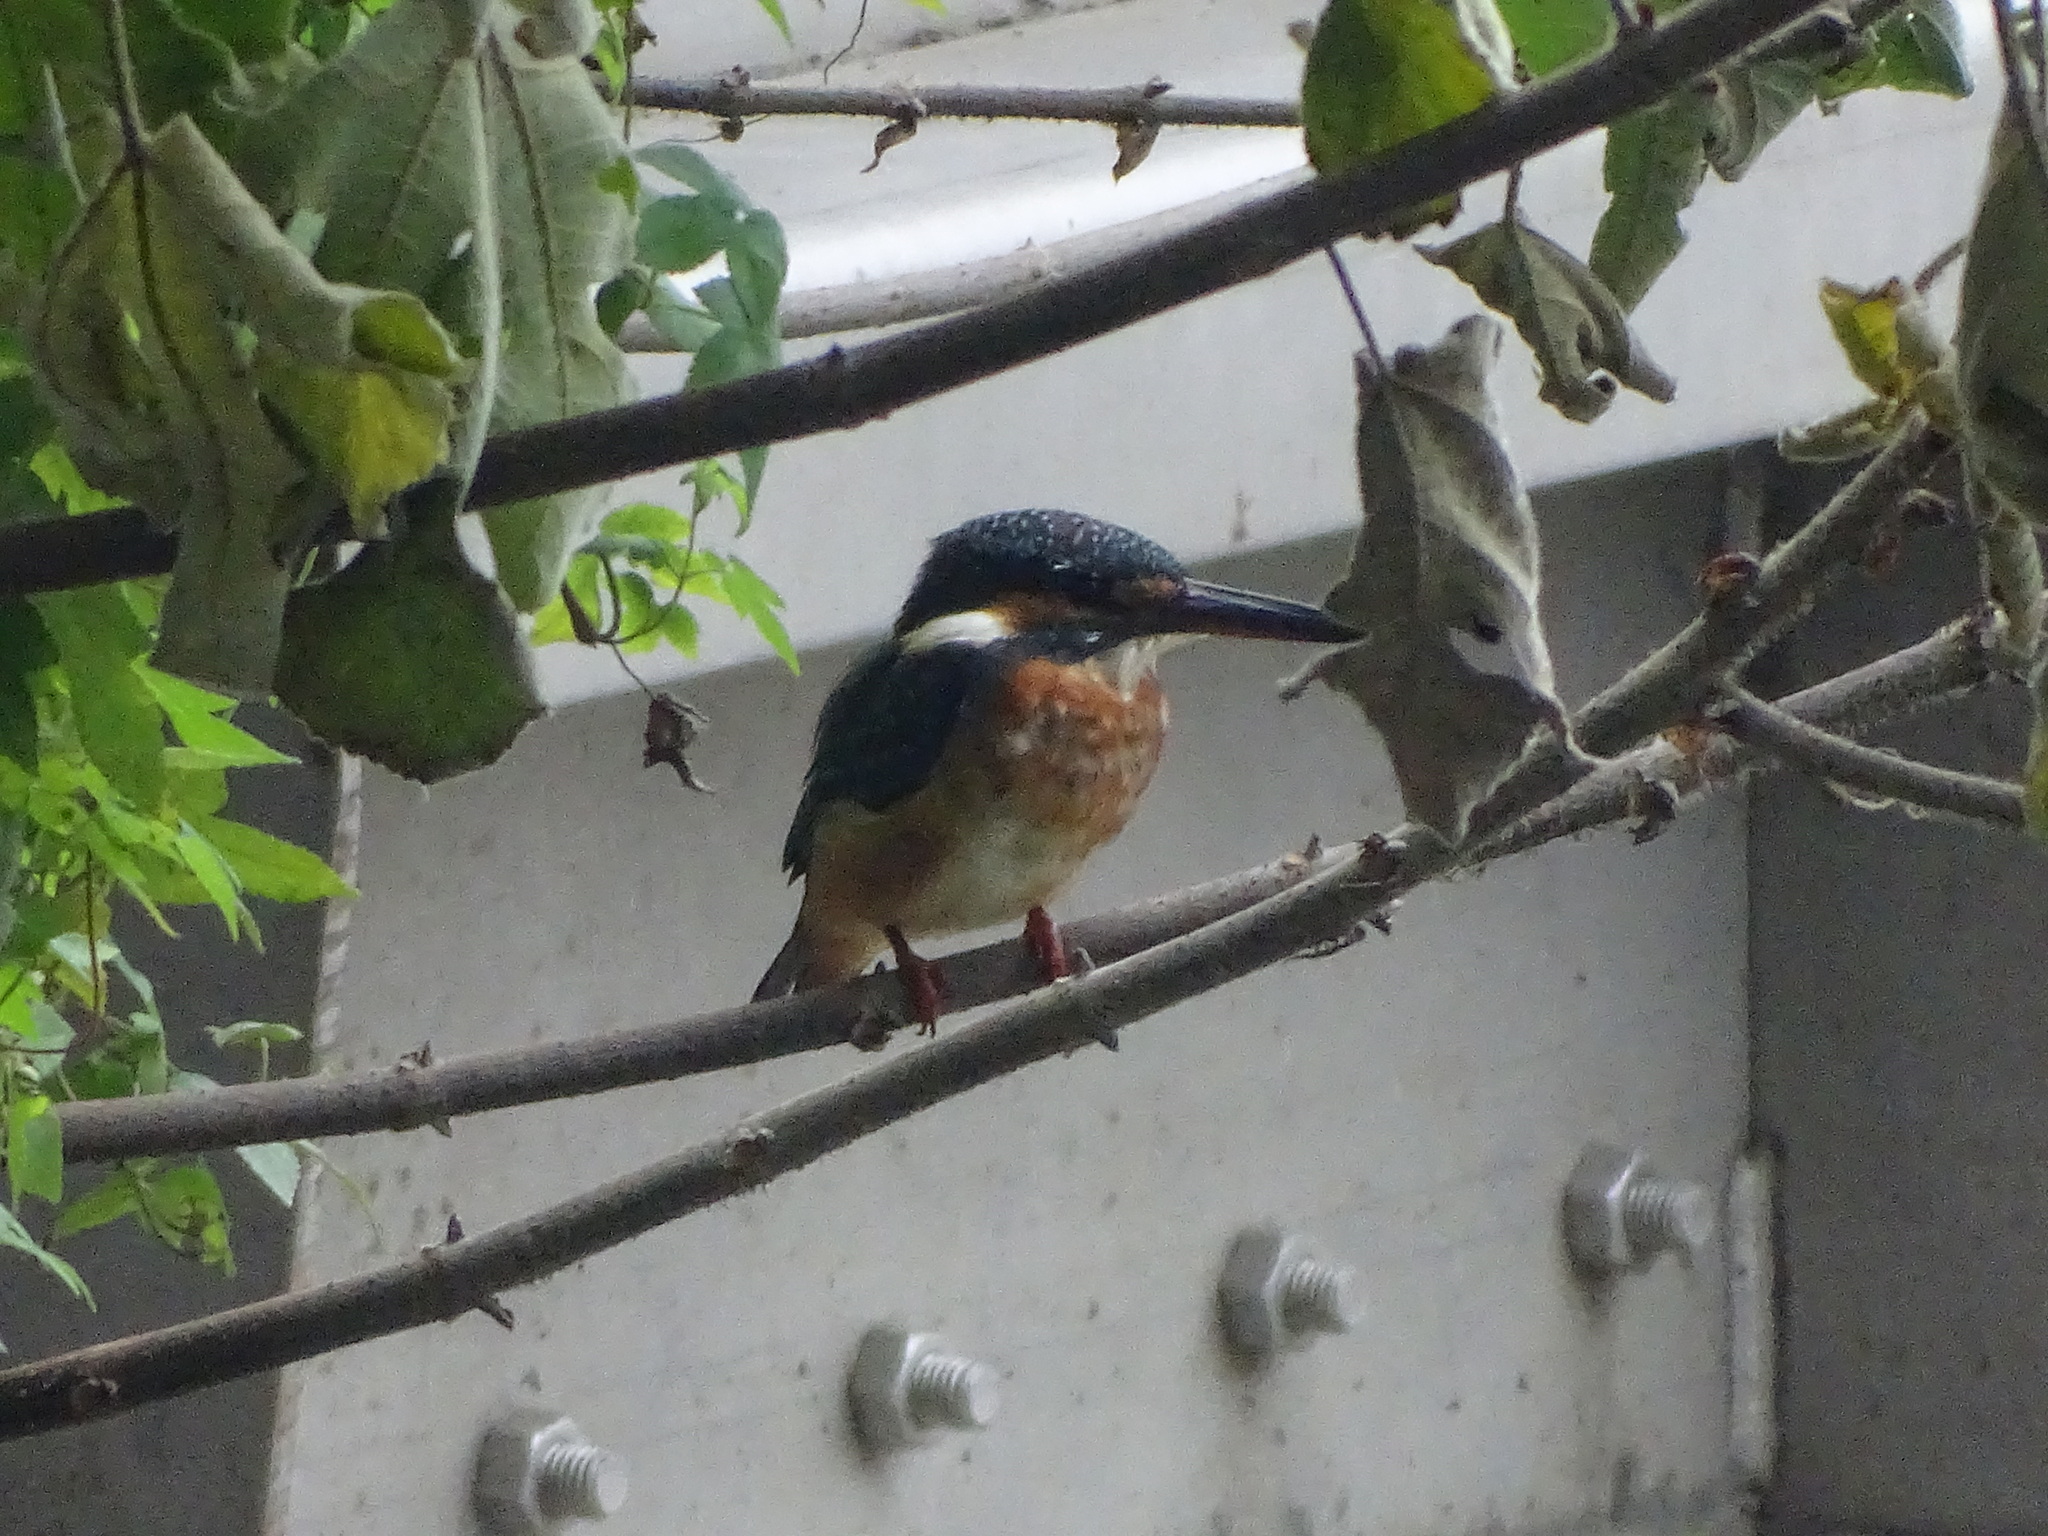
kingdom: Animalia
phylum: Chordata
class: Aves
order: Coraciiformes
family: Alcedinidae
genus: Alcedo
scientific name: Alcedo atthis
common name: Common kingfisher
